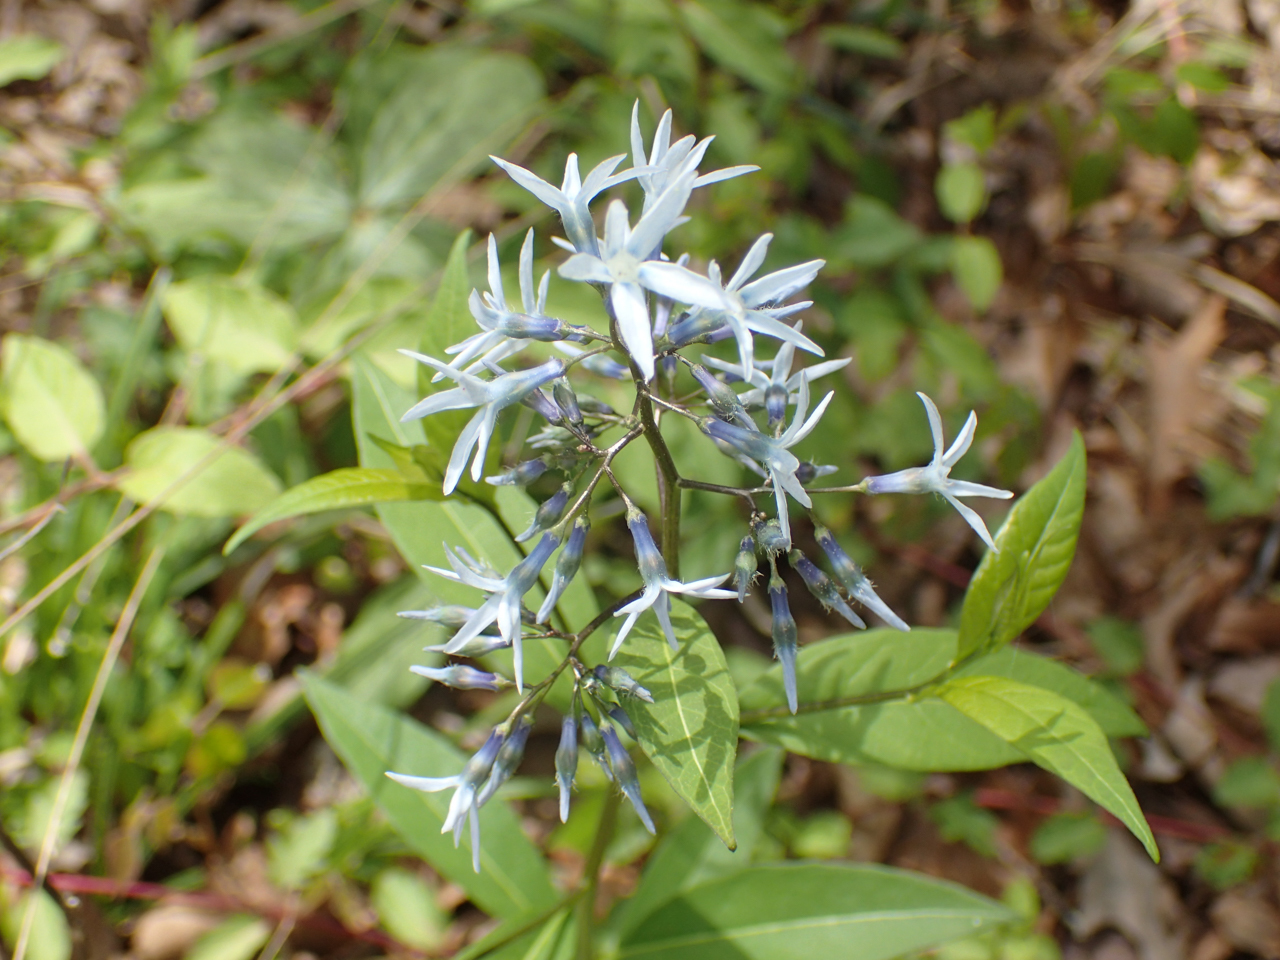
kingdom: Plantae
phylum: Tracheophyta
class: Magnoliopsida
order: Gentianales
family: Apocynaceae
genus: Amsonia
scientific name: Amsonia tabernaemontana
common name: Texas-star
